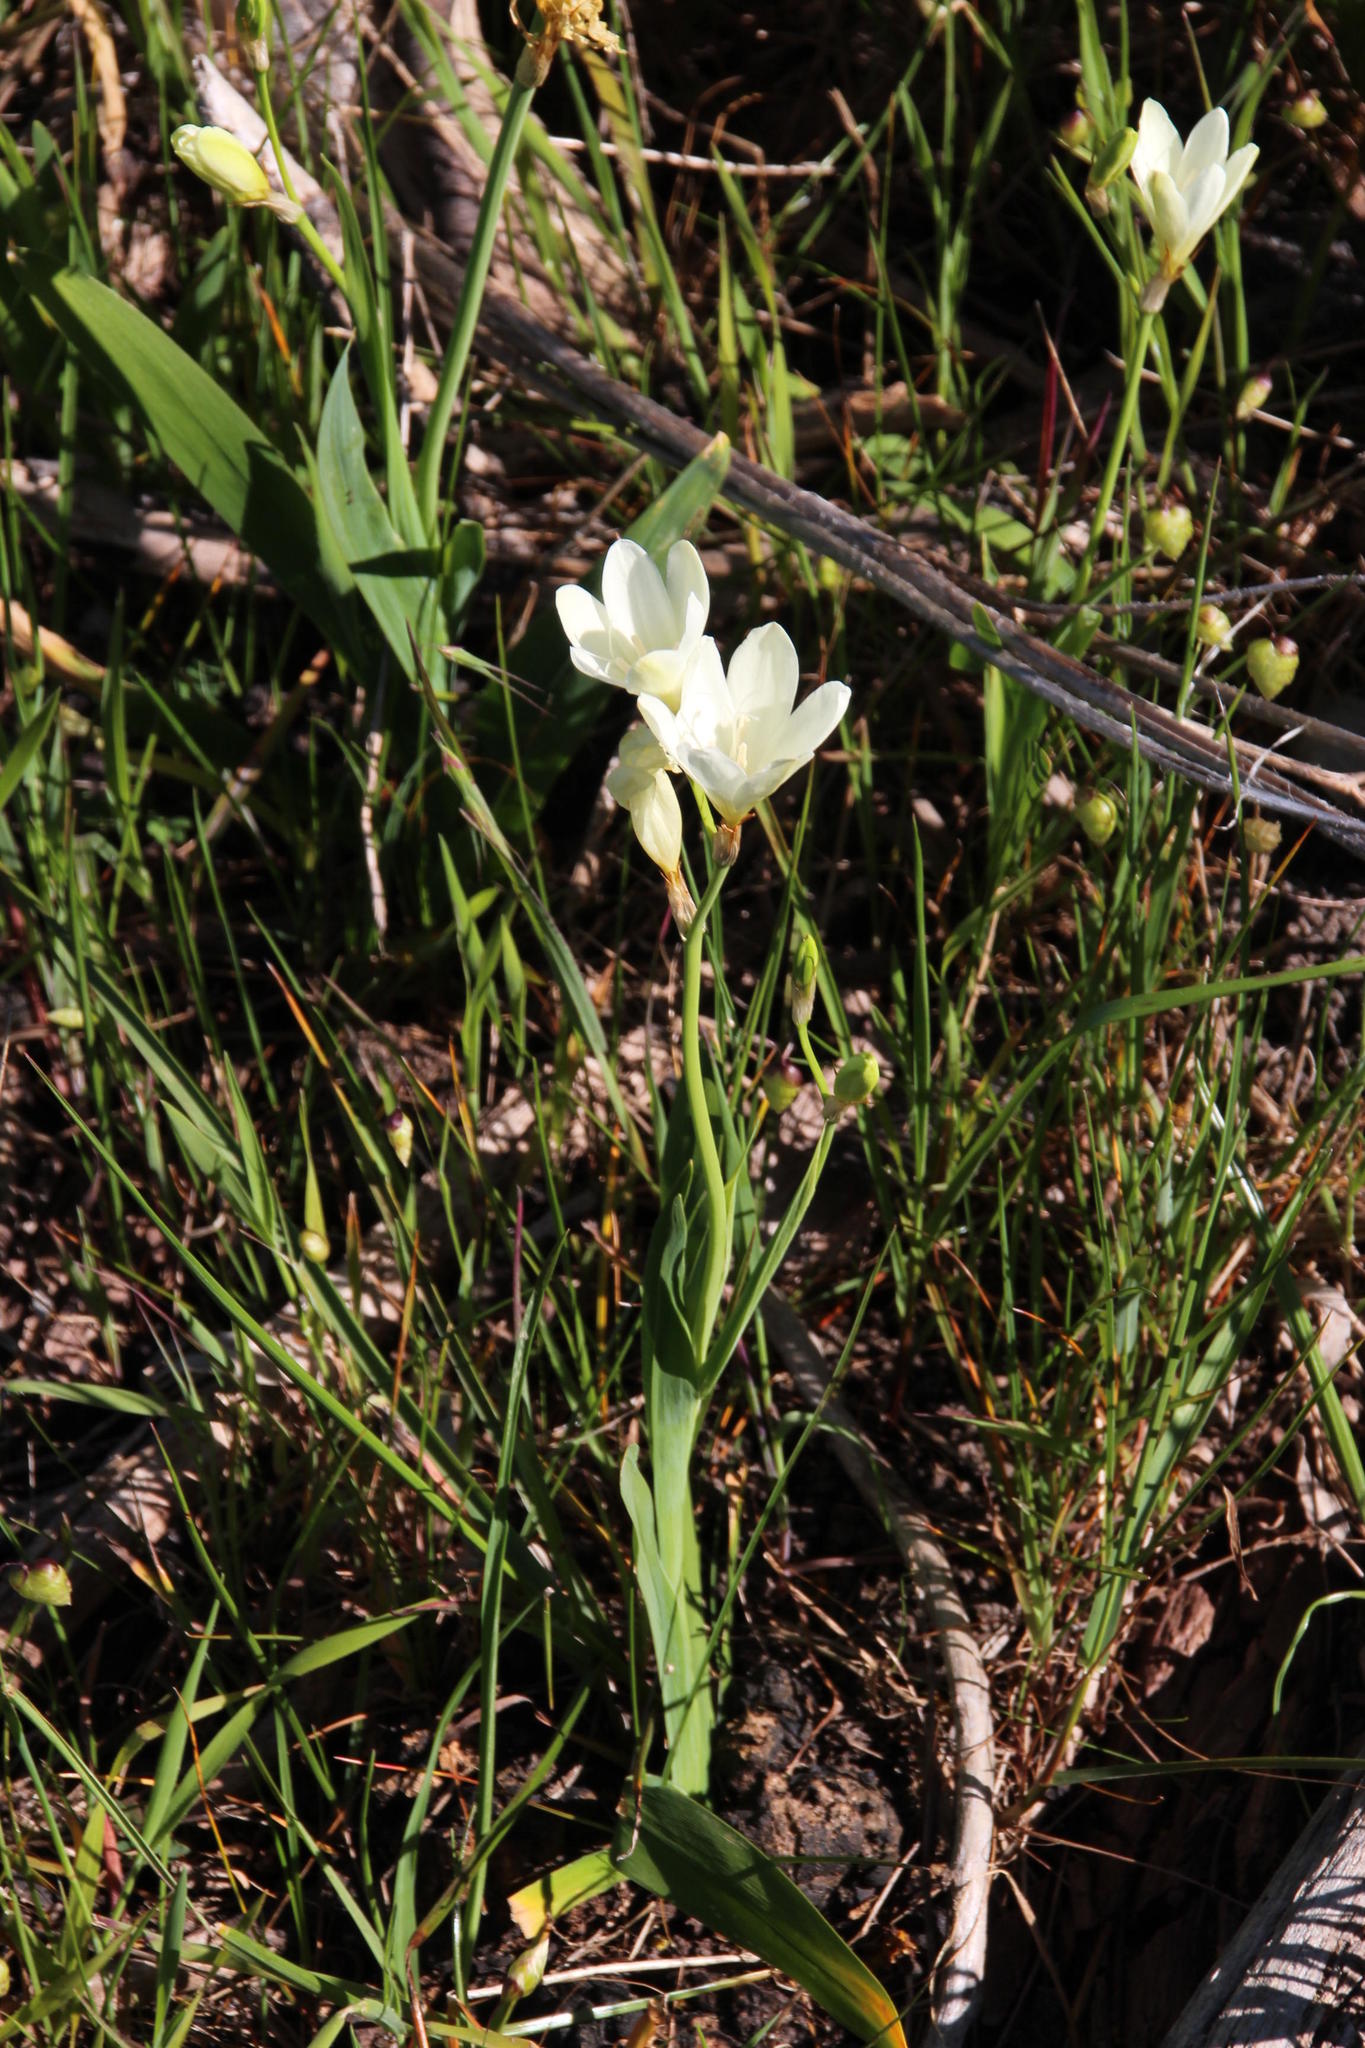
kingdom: Plantae
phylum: Tracheophyta
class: Liliopsida
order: Asparagales
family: Iridaceae
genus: Sparaxis
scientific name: Sparaxis bulbifera
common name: Harlequin-flower
